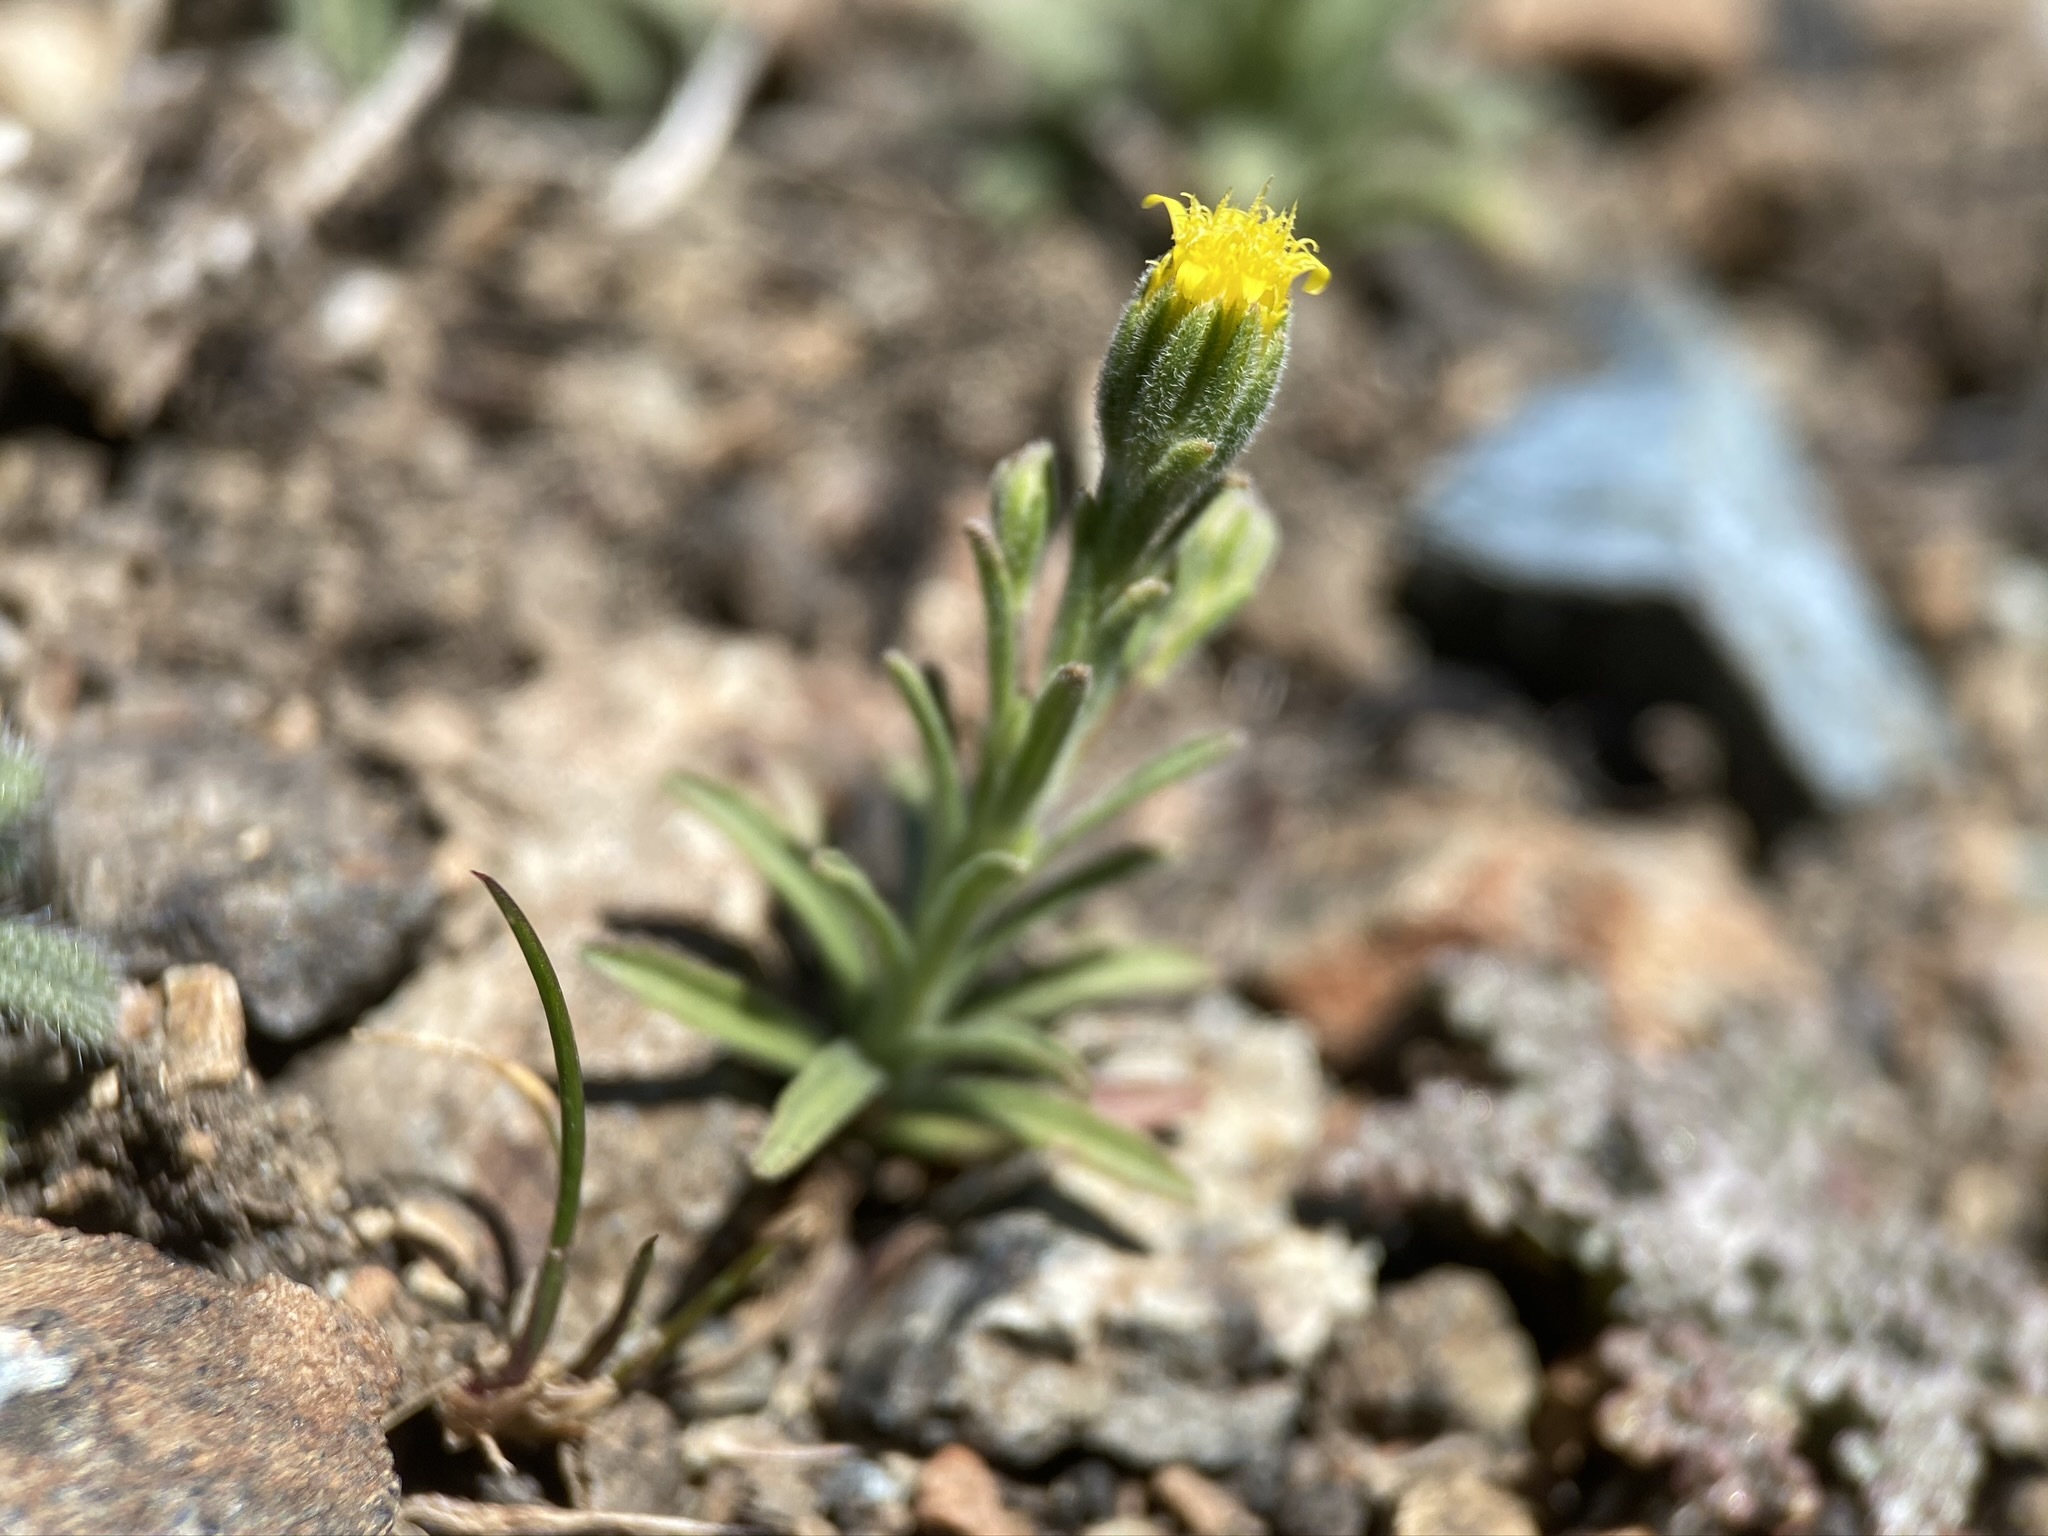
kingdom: Plantae
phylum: Tracheophyta
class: Magnoliopsida
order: Asterales
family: Asteraceae
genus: Rigiopappus
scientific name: Rigiopappus leptocladus
